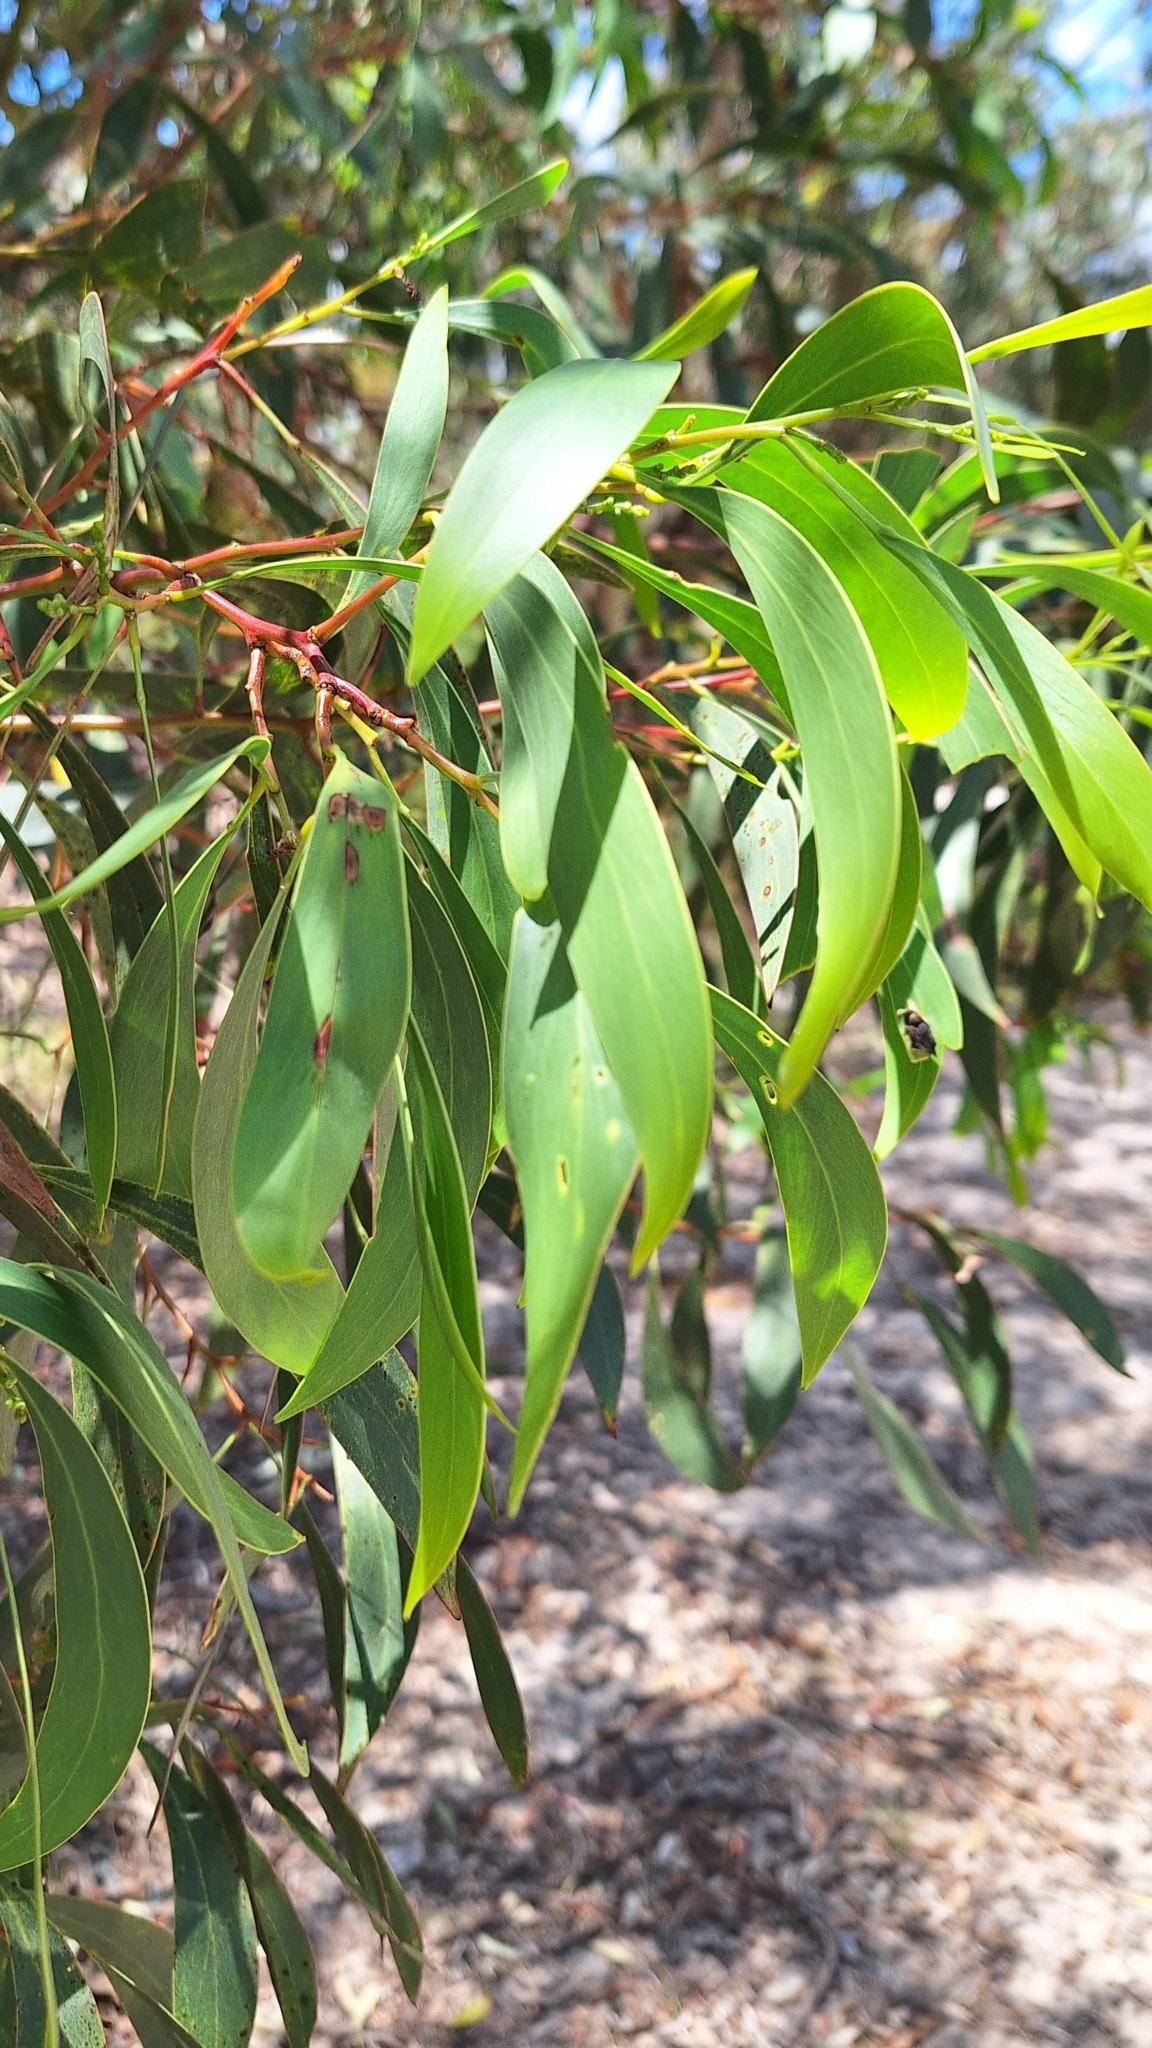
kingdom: Plantae
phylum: Tracheophyta
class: Magnoliopsida
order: Fabales
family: Fabaceae
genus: Acacia
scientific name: Acacia pycnantha
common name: Golden wattle
